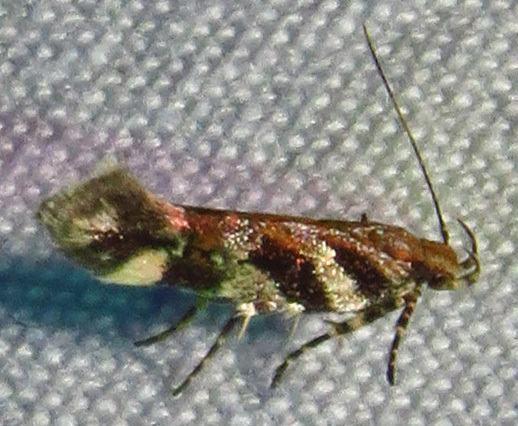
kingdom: Animalia
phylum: Arthropoda
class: Insecta
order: Lepidoptera
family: Gelechiidae
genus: Aristotelia
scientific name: Aristotelia roseosuffusella
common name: Pink-washed aristotelia moth
